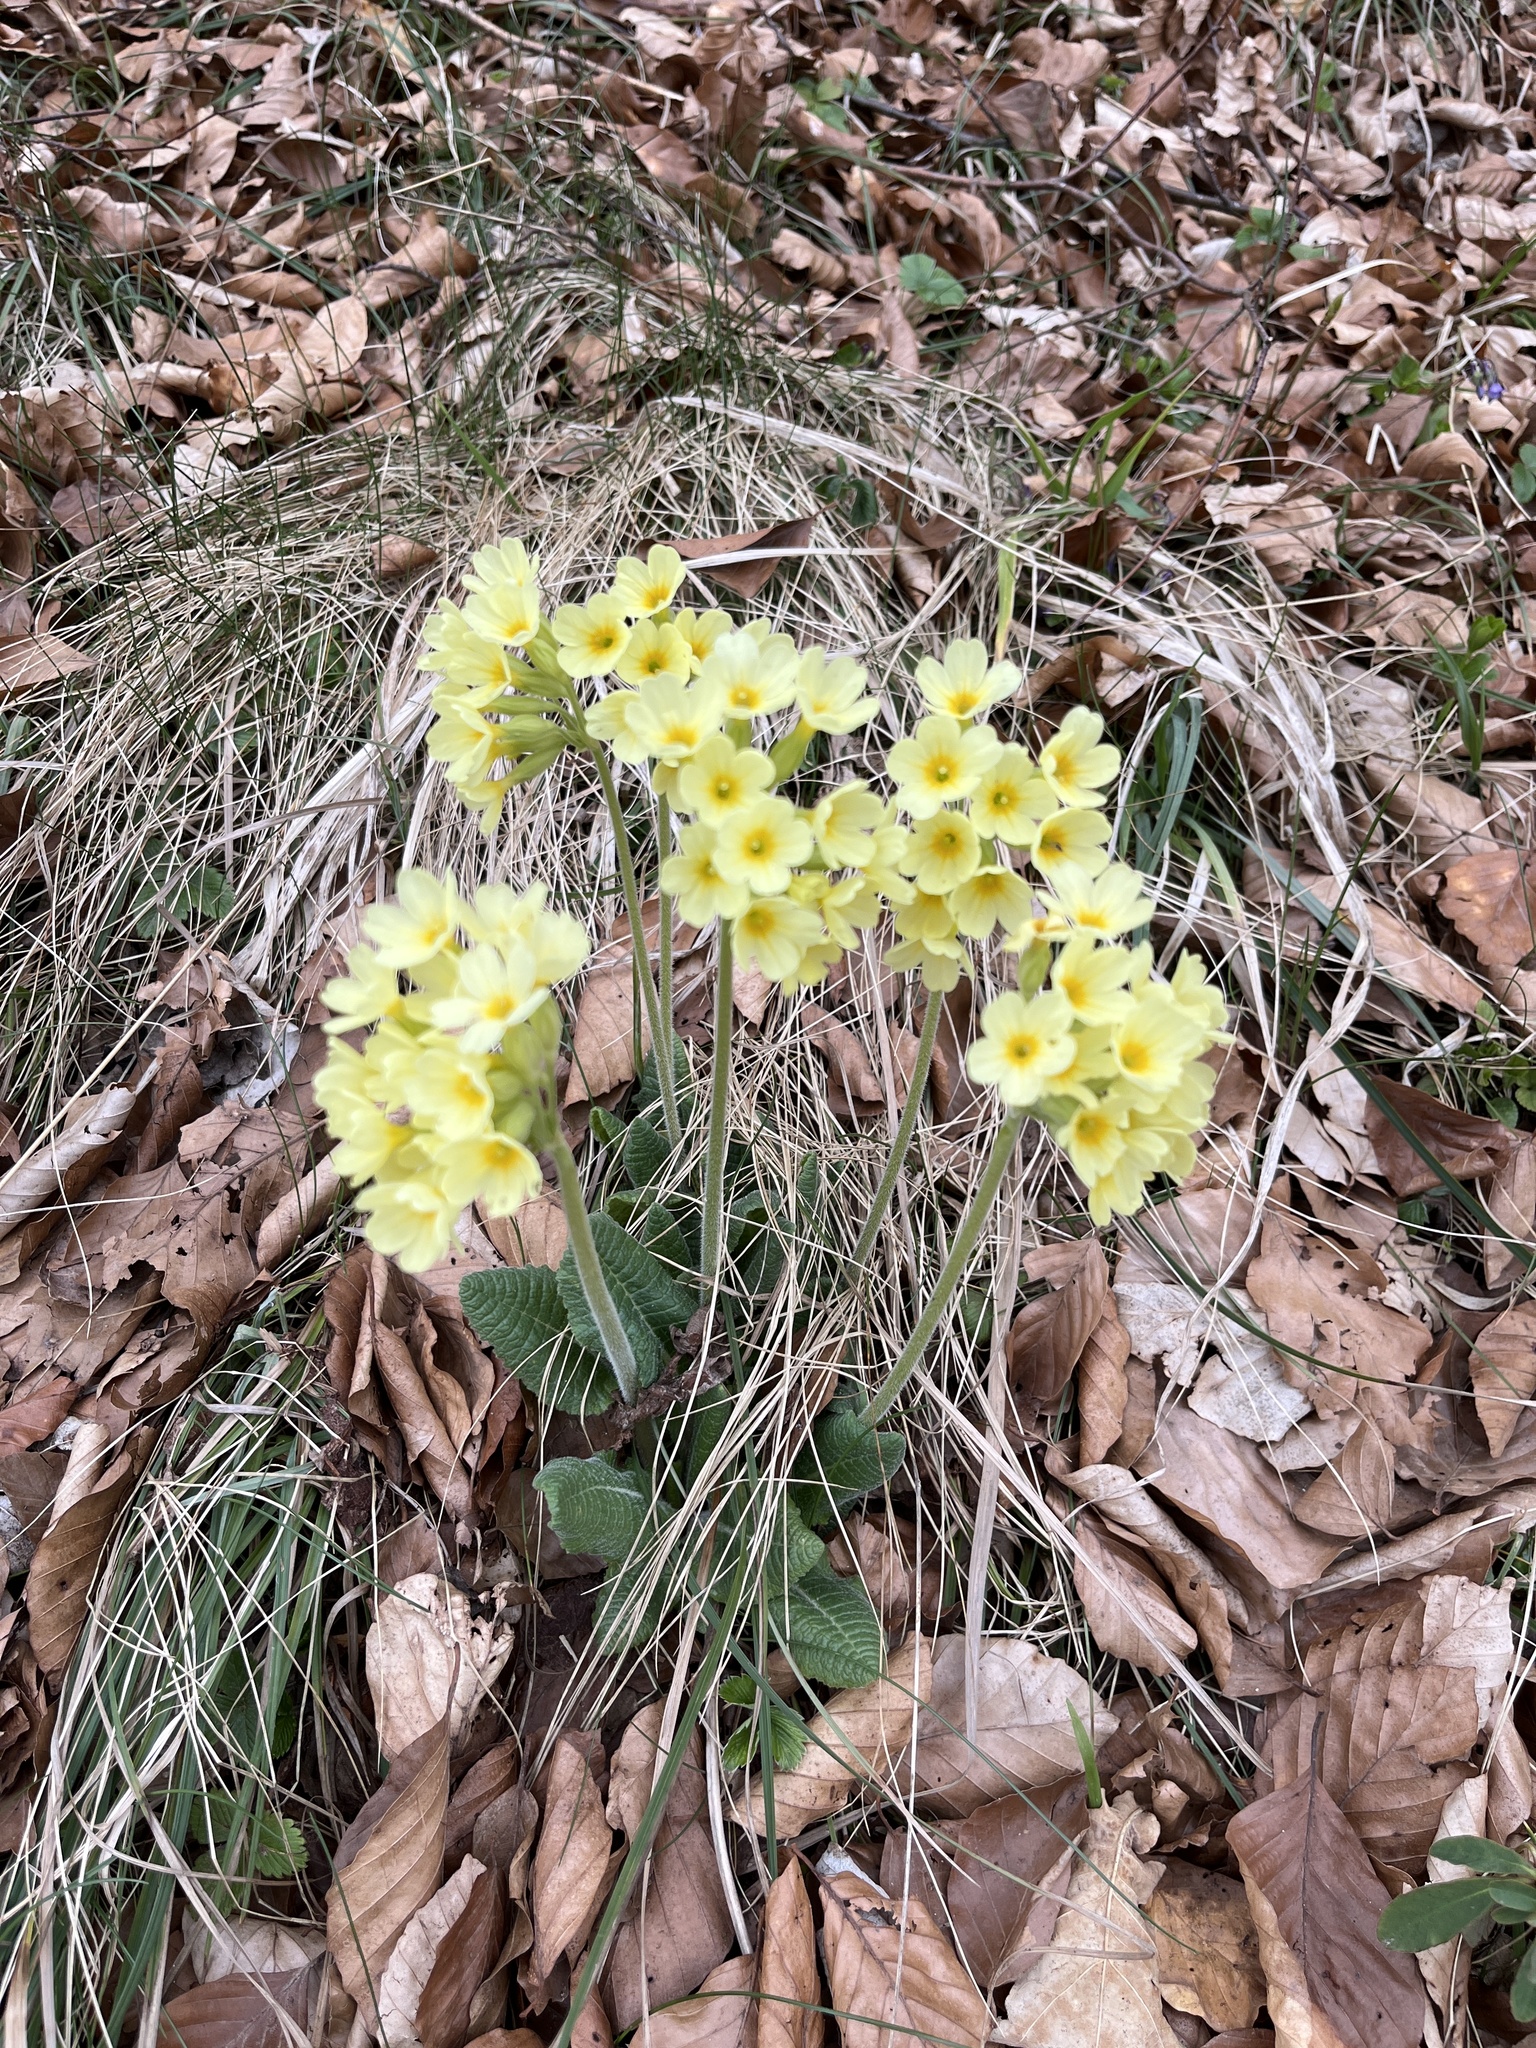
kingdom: Plantae
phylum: Tracheophyta
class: Magnoliopsida
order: Ericales
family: Primulaceae
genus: Primula
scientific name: Primula elatior
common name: Oxlip
